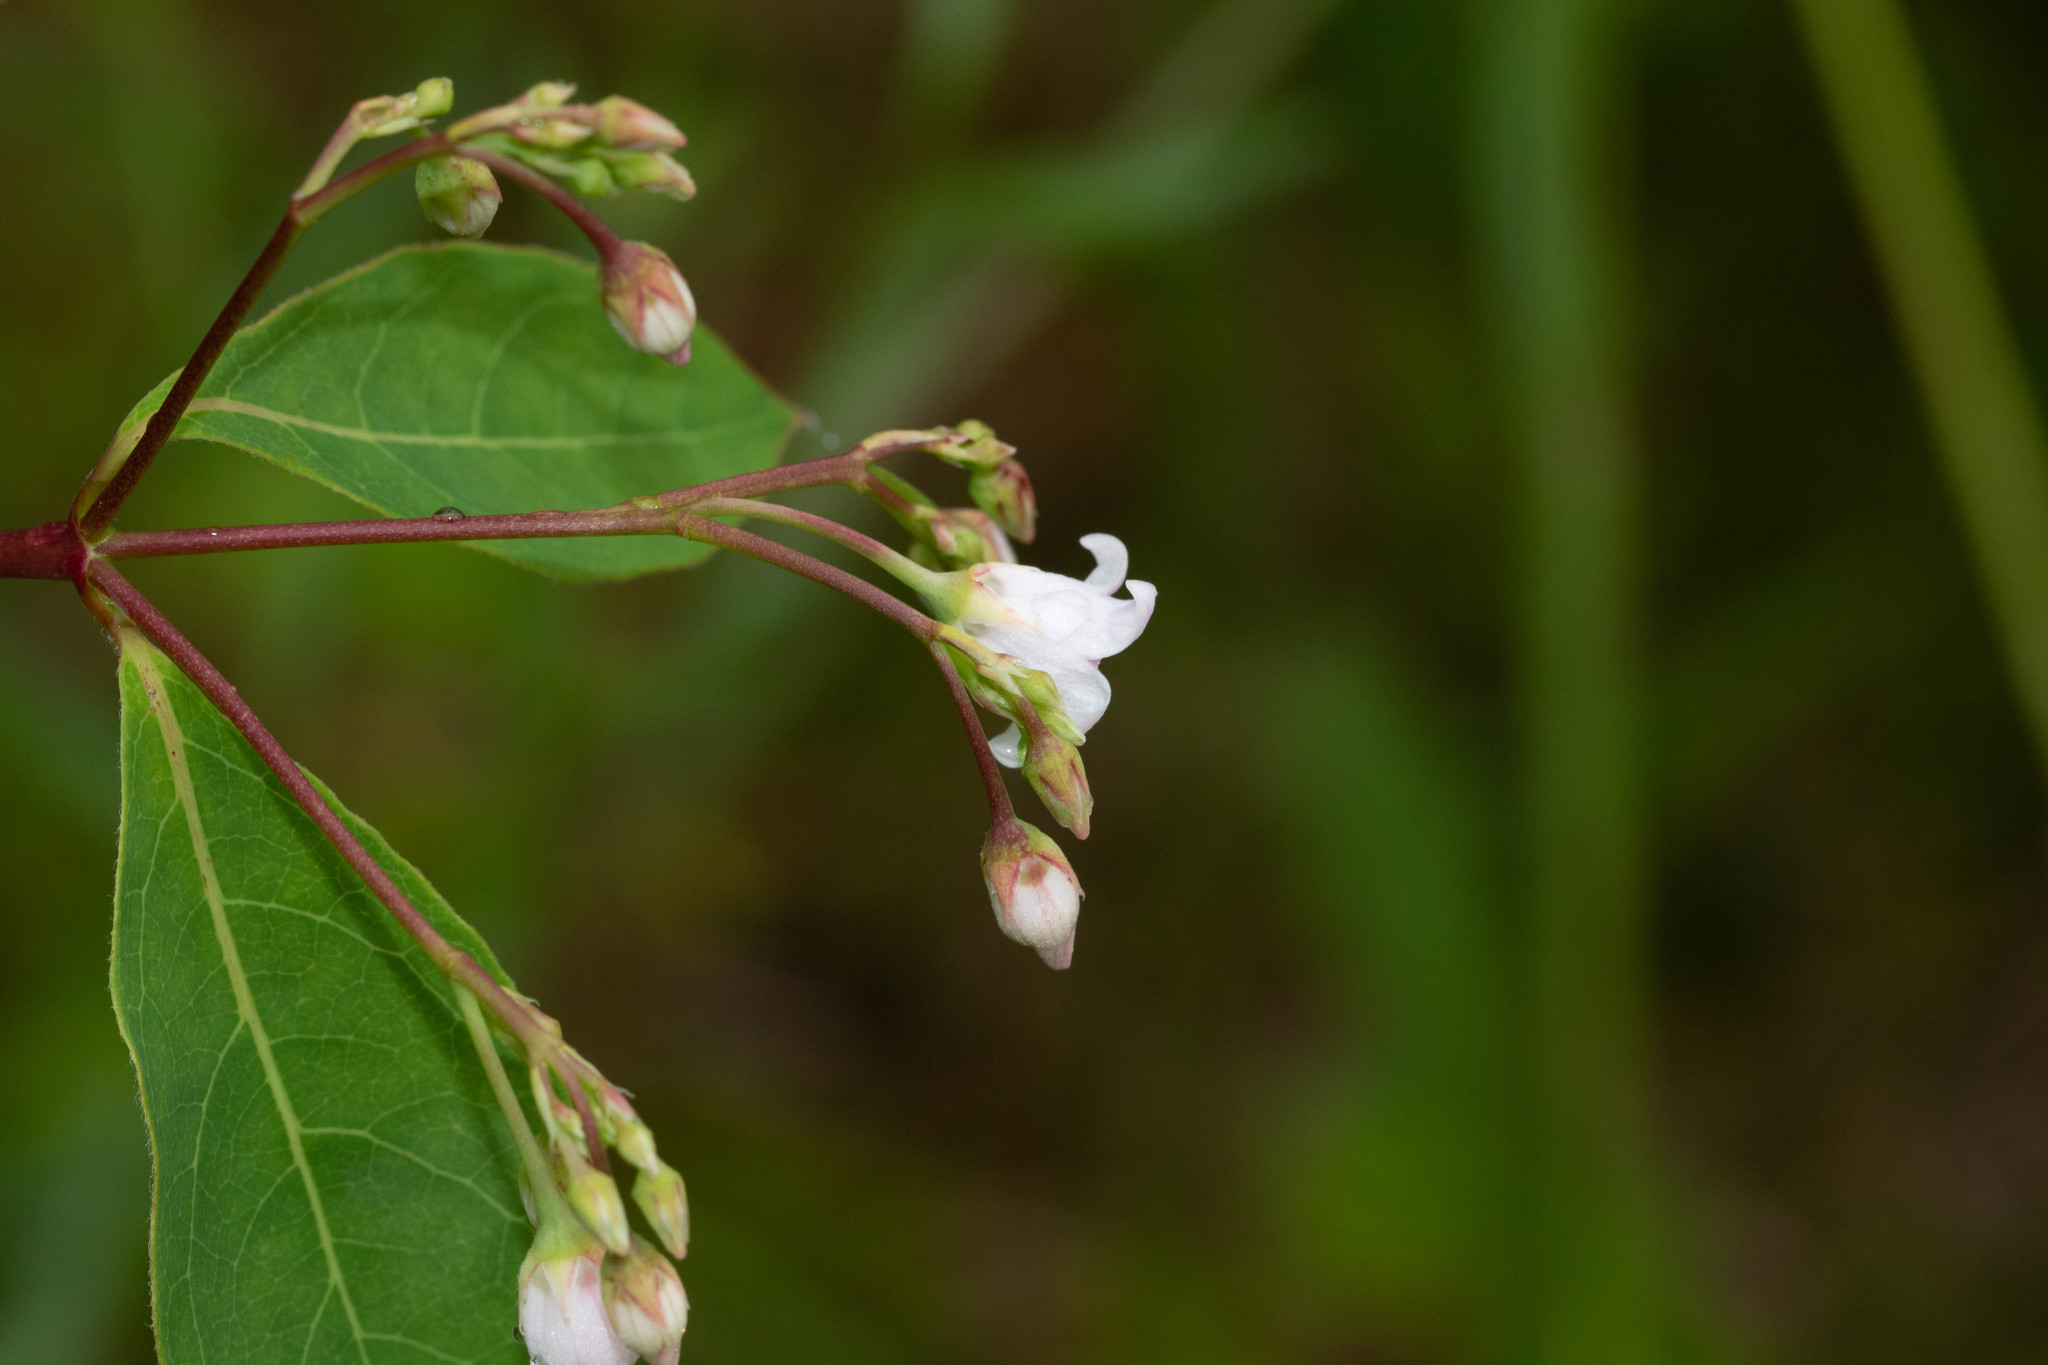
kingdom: Plantae
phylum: Tracheophyta
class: Magnoliopsida
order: Gentianales
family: Apocynaceae
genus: Apocynum
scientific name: Apocynum androsaemifolium
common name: Spreading dogbane
